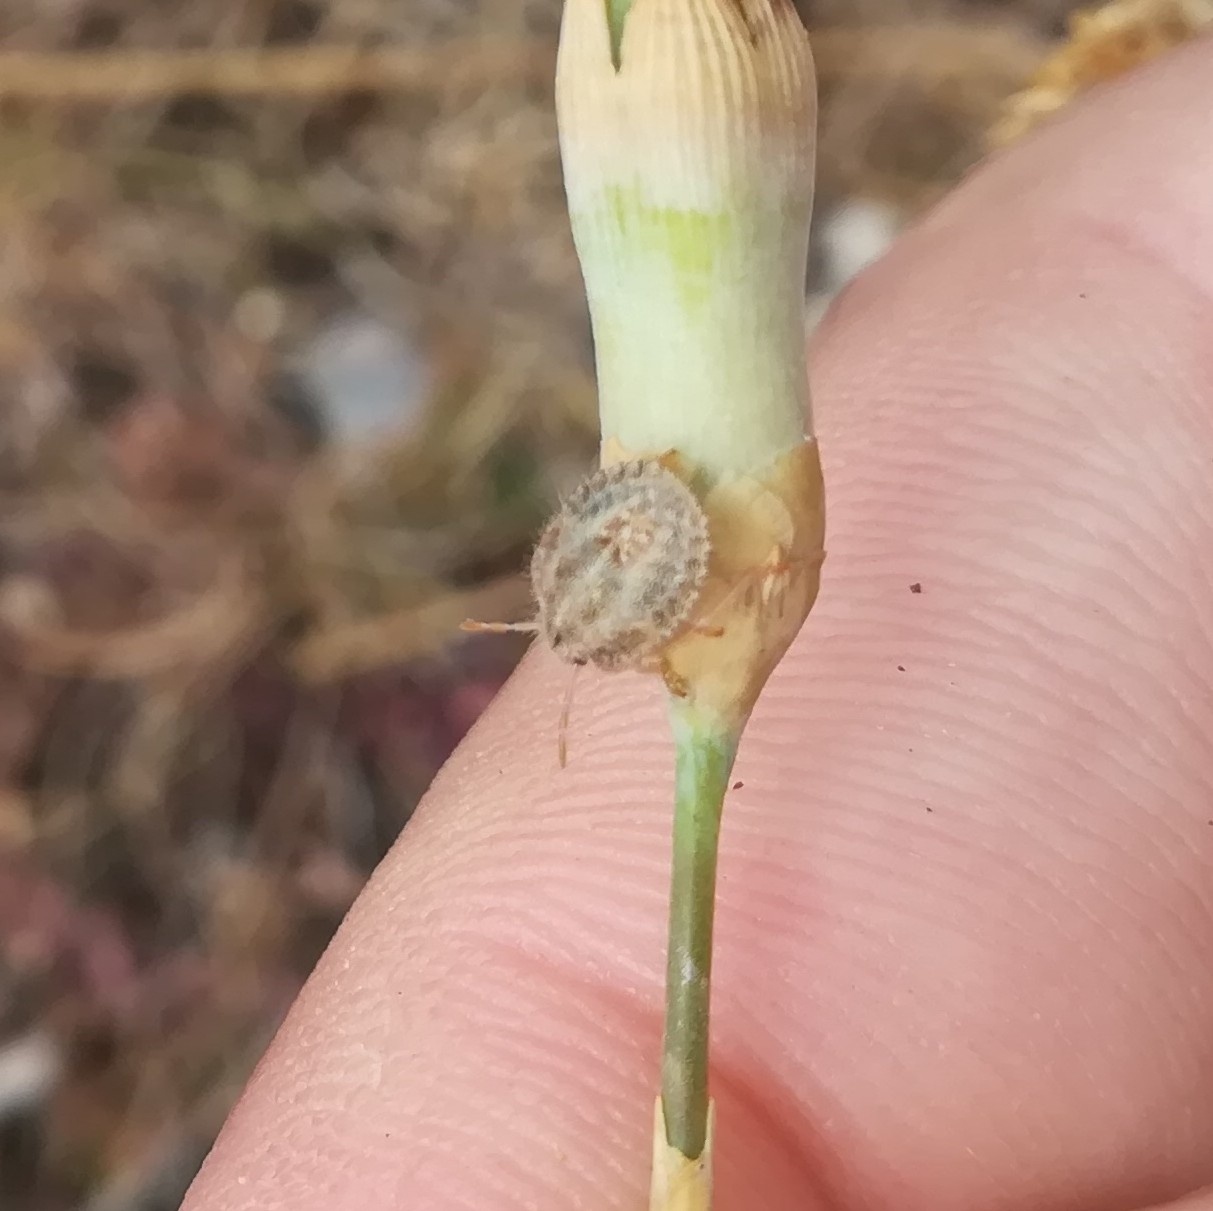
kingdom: Animalia
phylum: Arthropoda
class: Insecta
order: Hemiptera
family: Pentatomidae
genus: Dolycoris
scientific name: Dolycoris baccarum
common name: Sloe bug
